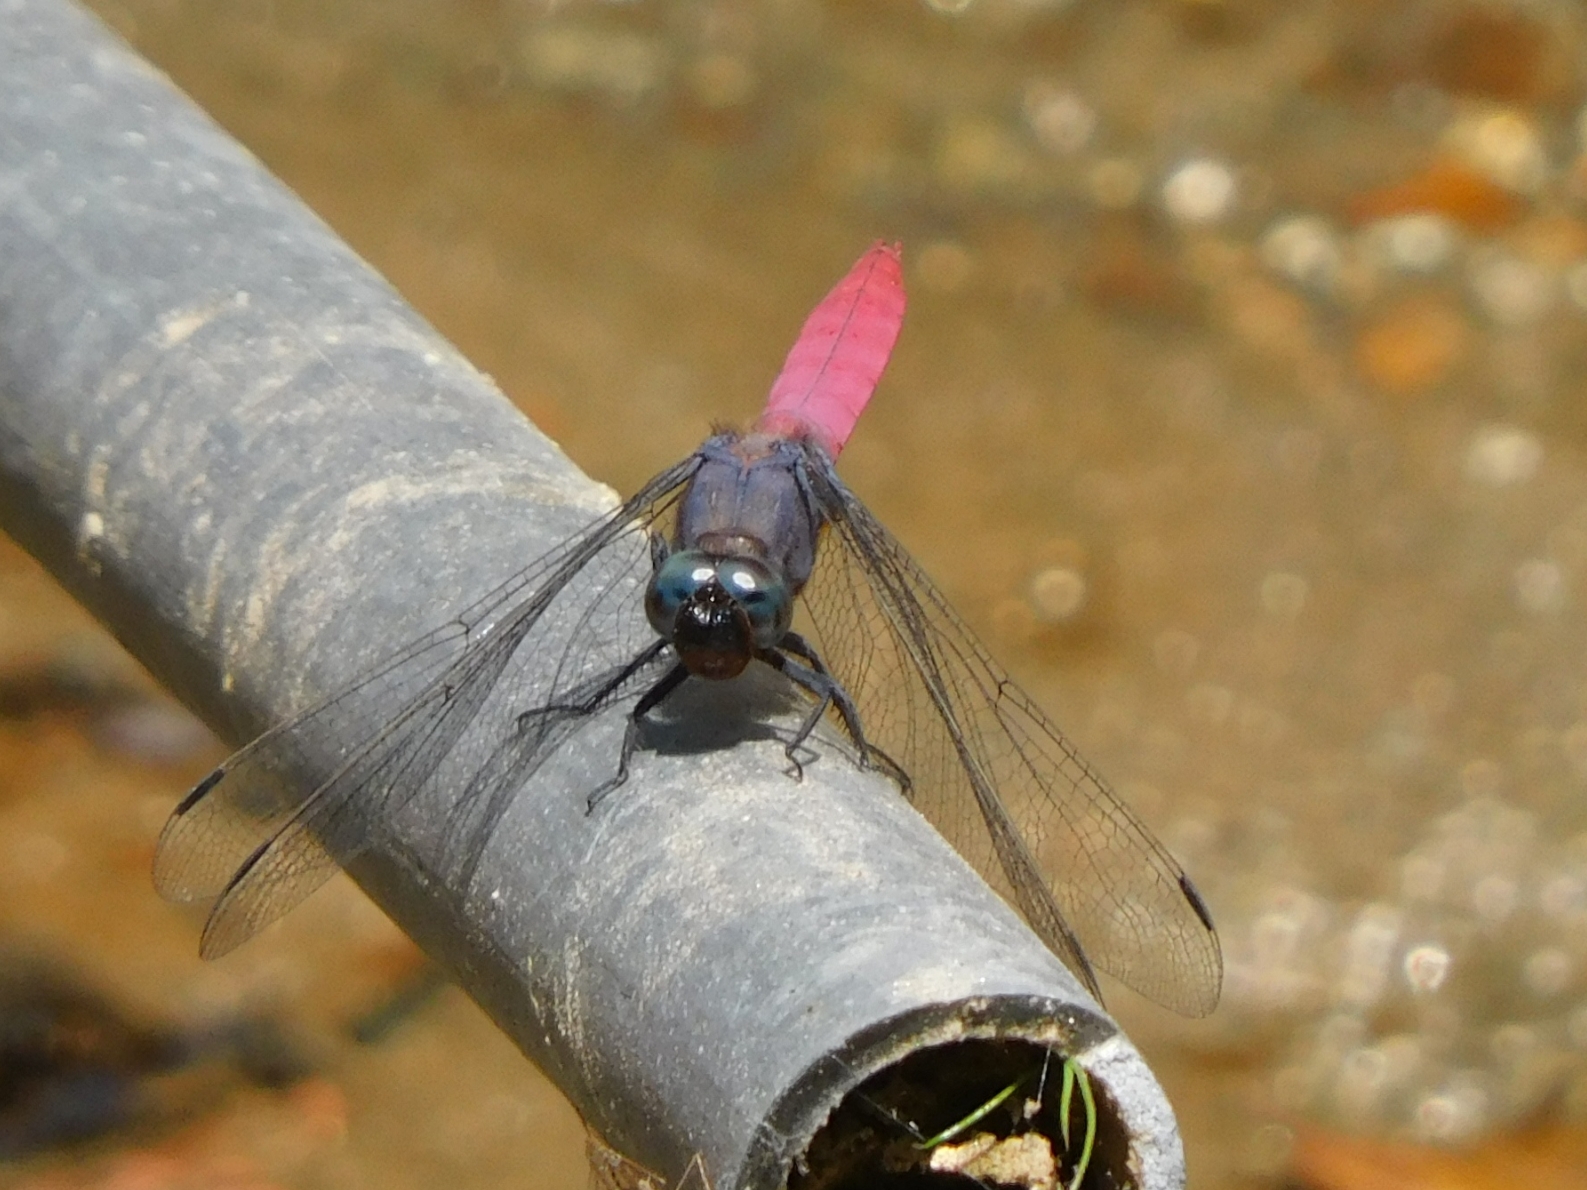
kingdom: Animalia
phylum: Arthropoda
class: Insecta
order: Odonata
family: Libellulidae
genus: Orthetrum
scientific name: Orthetrum pruinosum
